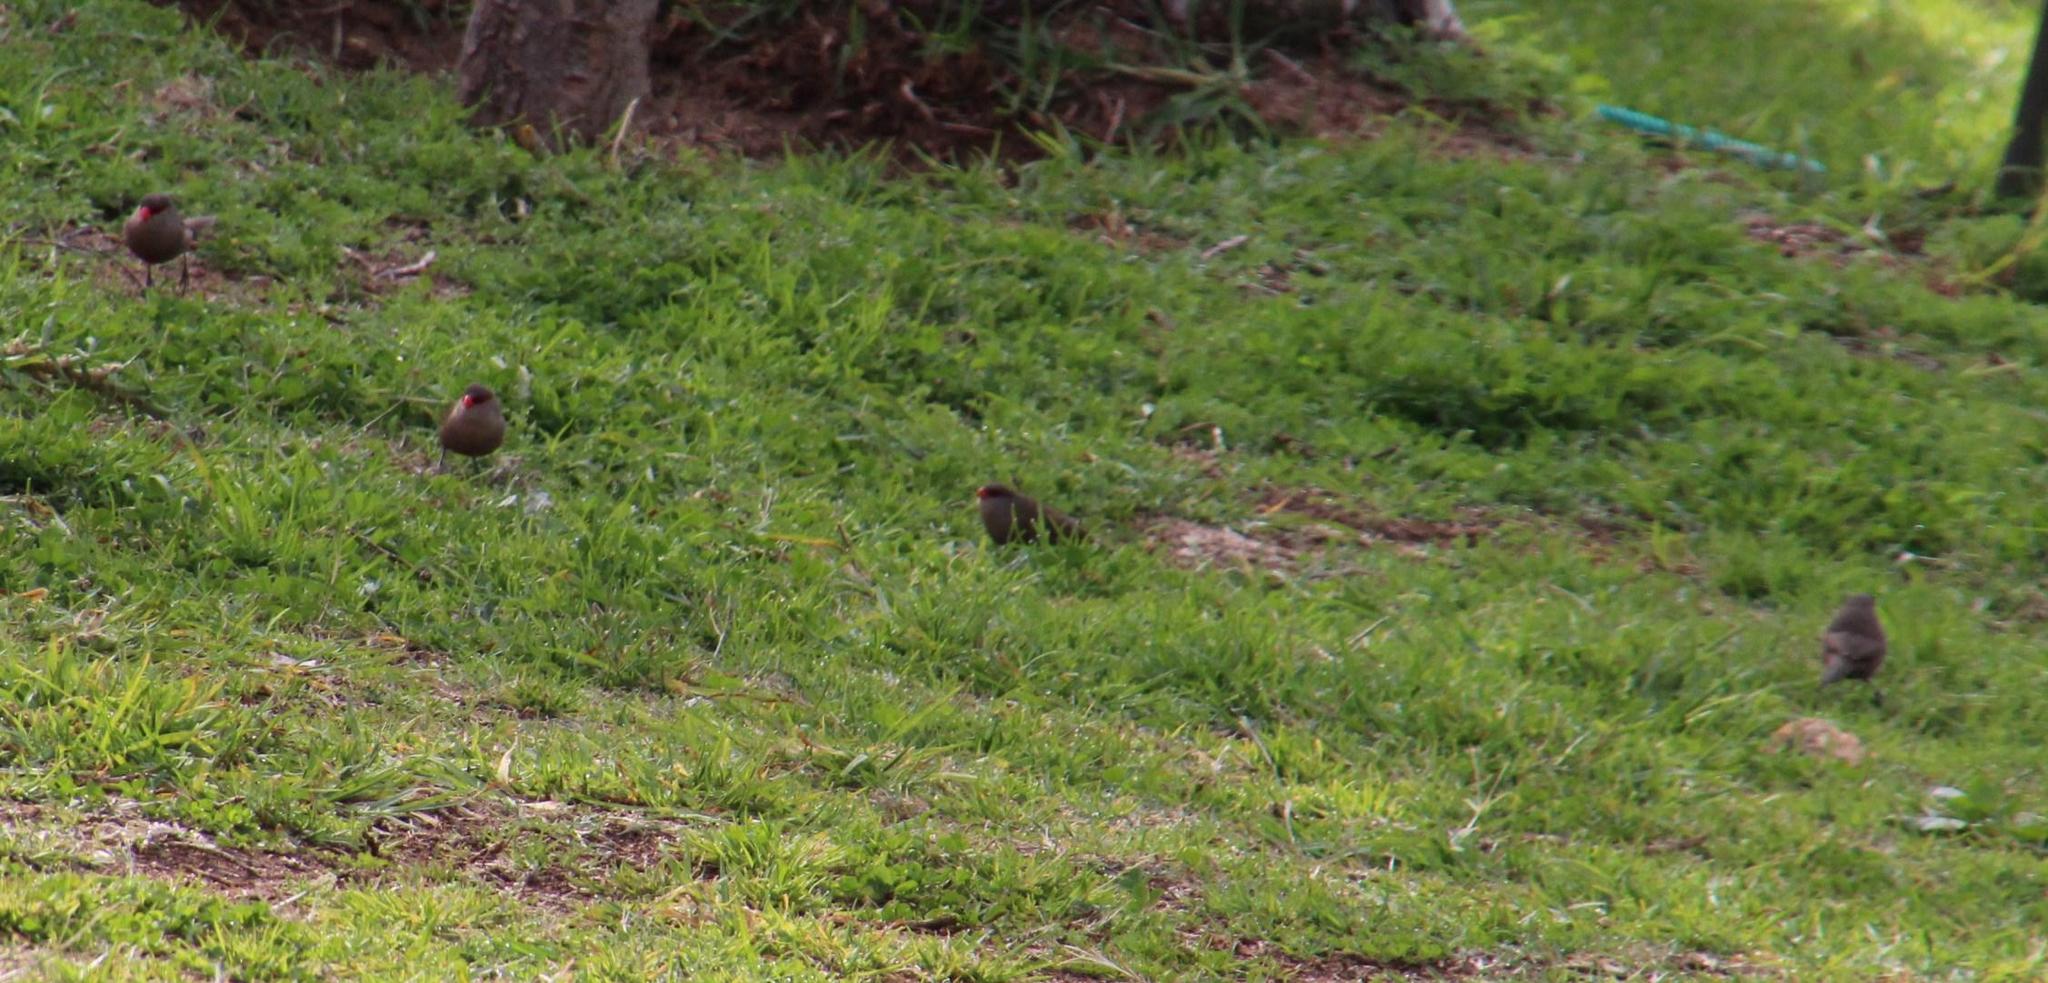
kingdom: Animalia
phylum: Chordata
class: Aves
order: Passeriformes
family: Estrildidae
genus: Estrilda
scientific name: Estrilda astrild
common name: Common waxbill
